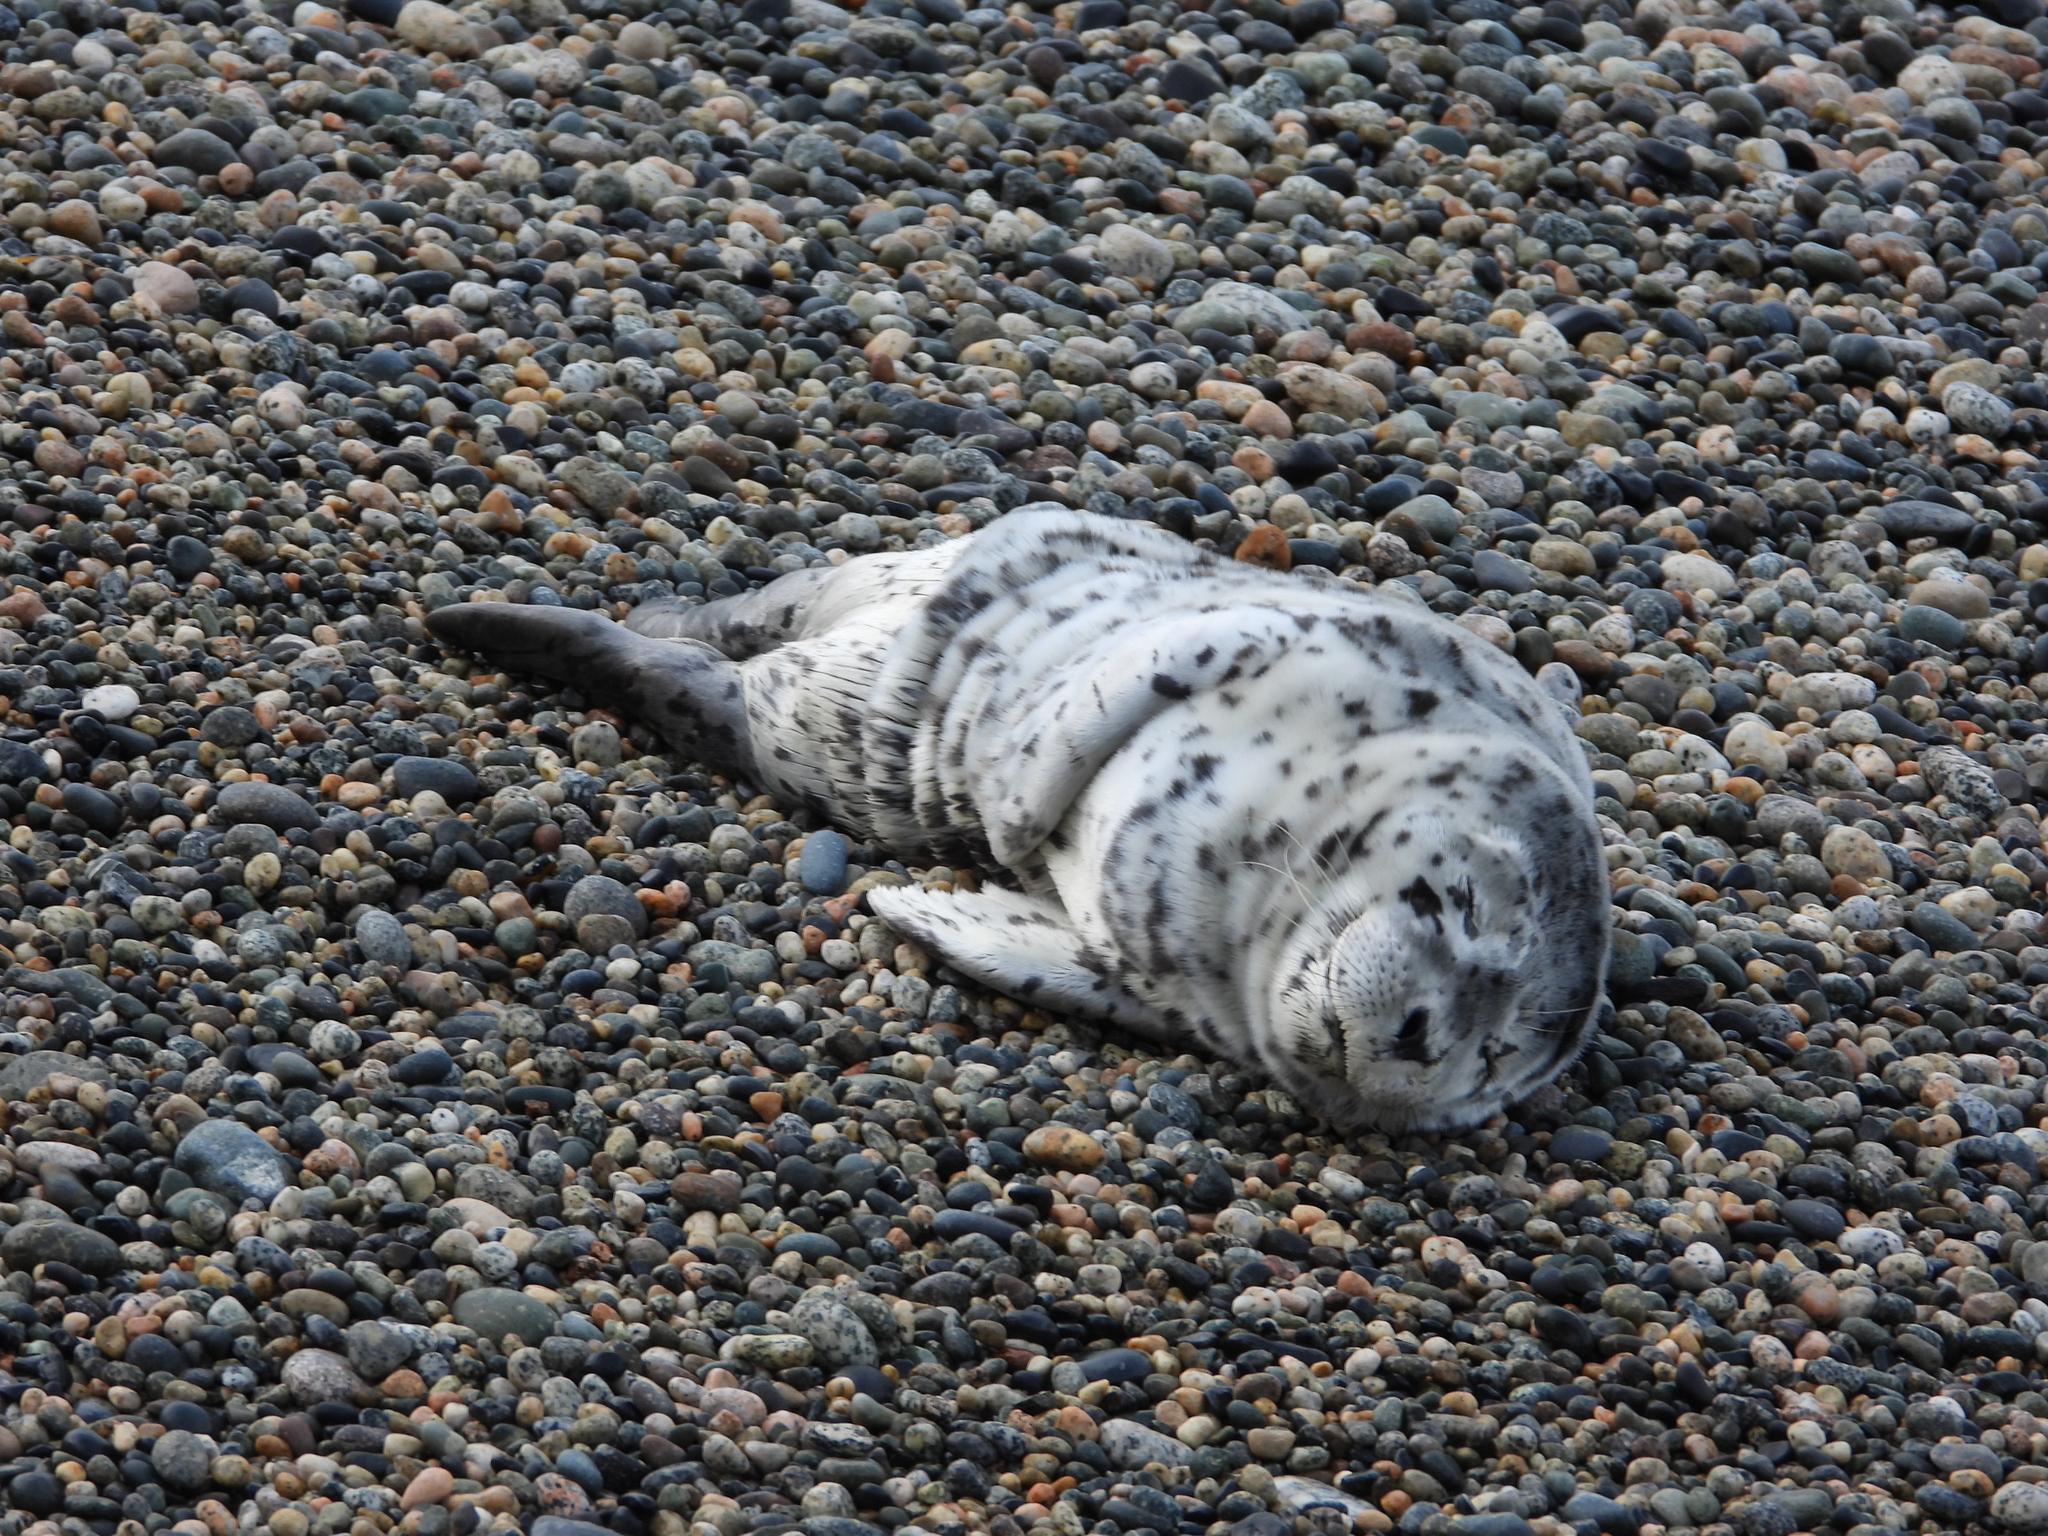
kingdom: Animalia
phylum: Chordata
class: Mammalia
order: Carnivora
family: Phocidae
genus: Phoca
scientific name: Phoca vitulina
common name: Harbor seal
